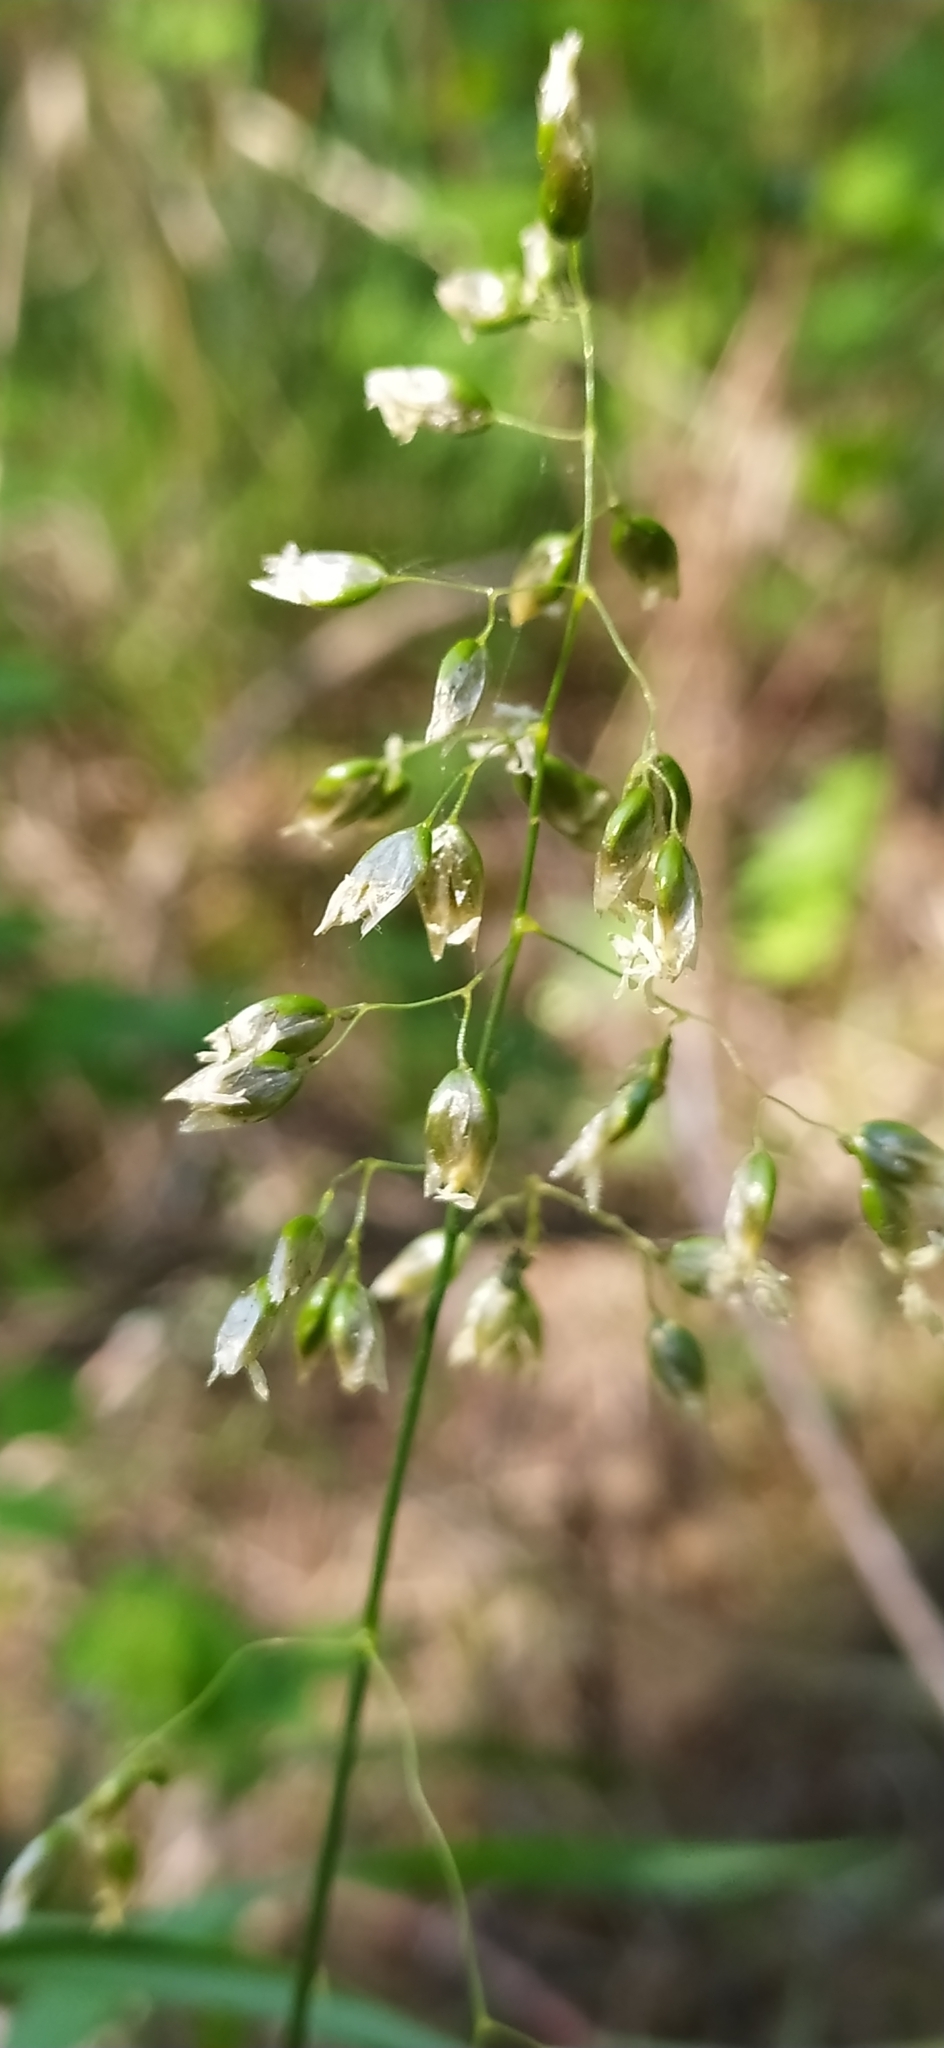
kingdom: Plantae
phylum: Tracheophyta
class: Liliopsida
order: Poales
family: Poaceae
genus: Anthoxanthum
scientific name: Anthoxanthum nitens
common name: Holy grass
